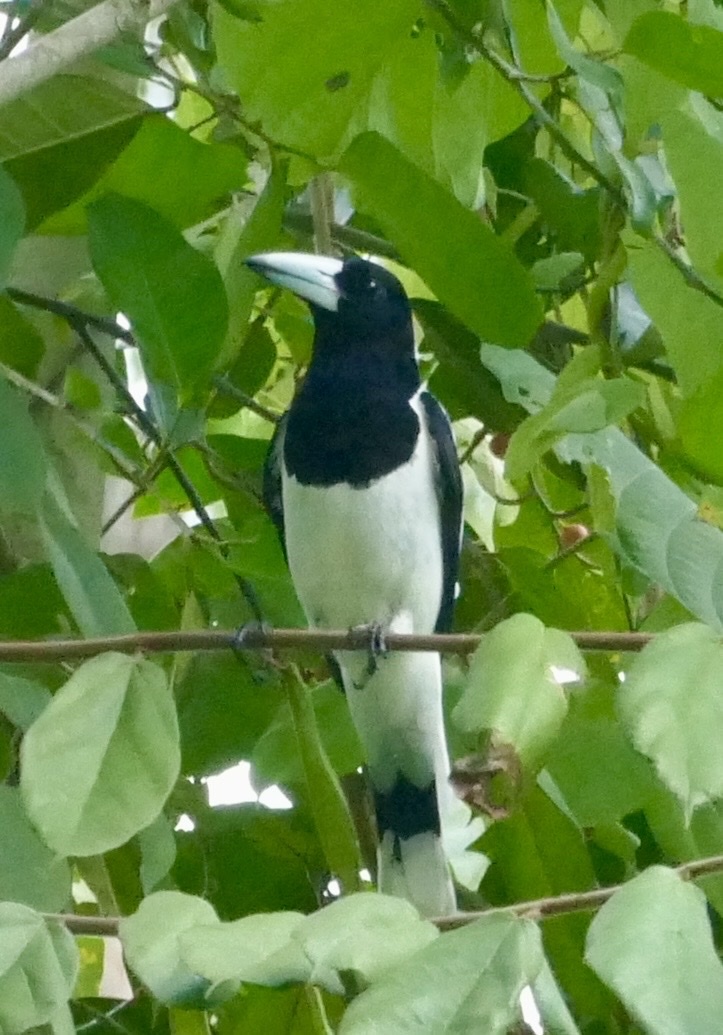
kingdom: Animalia
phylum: Chordata
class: Aves
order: Passeriformes
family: Cracticidae
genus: Cracticus
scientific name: Cracticus cassicus
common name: Hooded butcherbird
